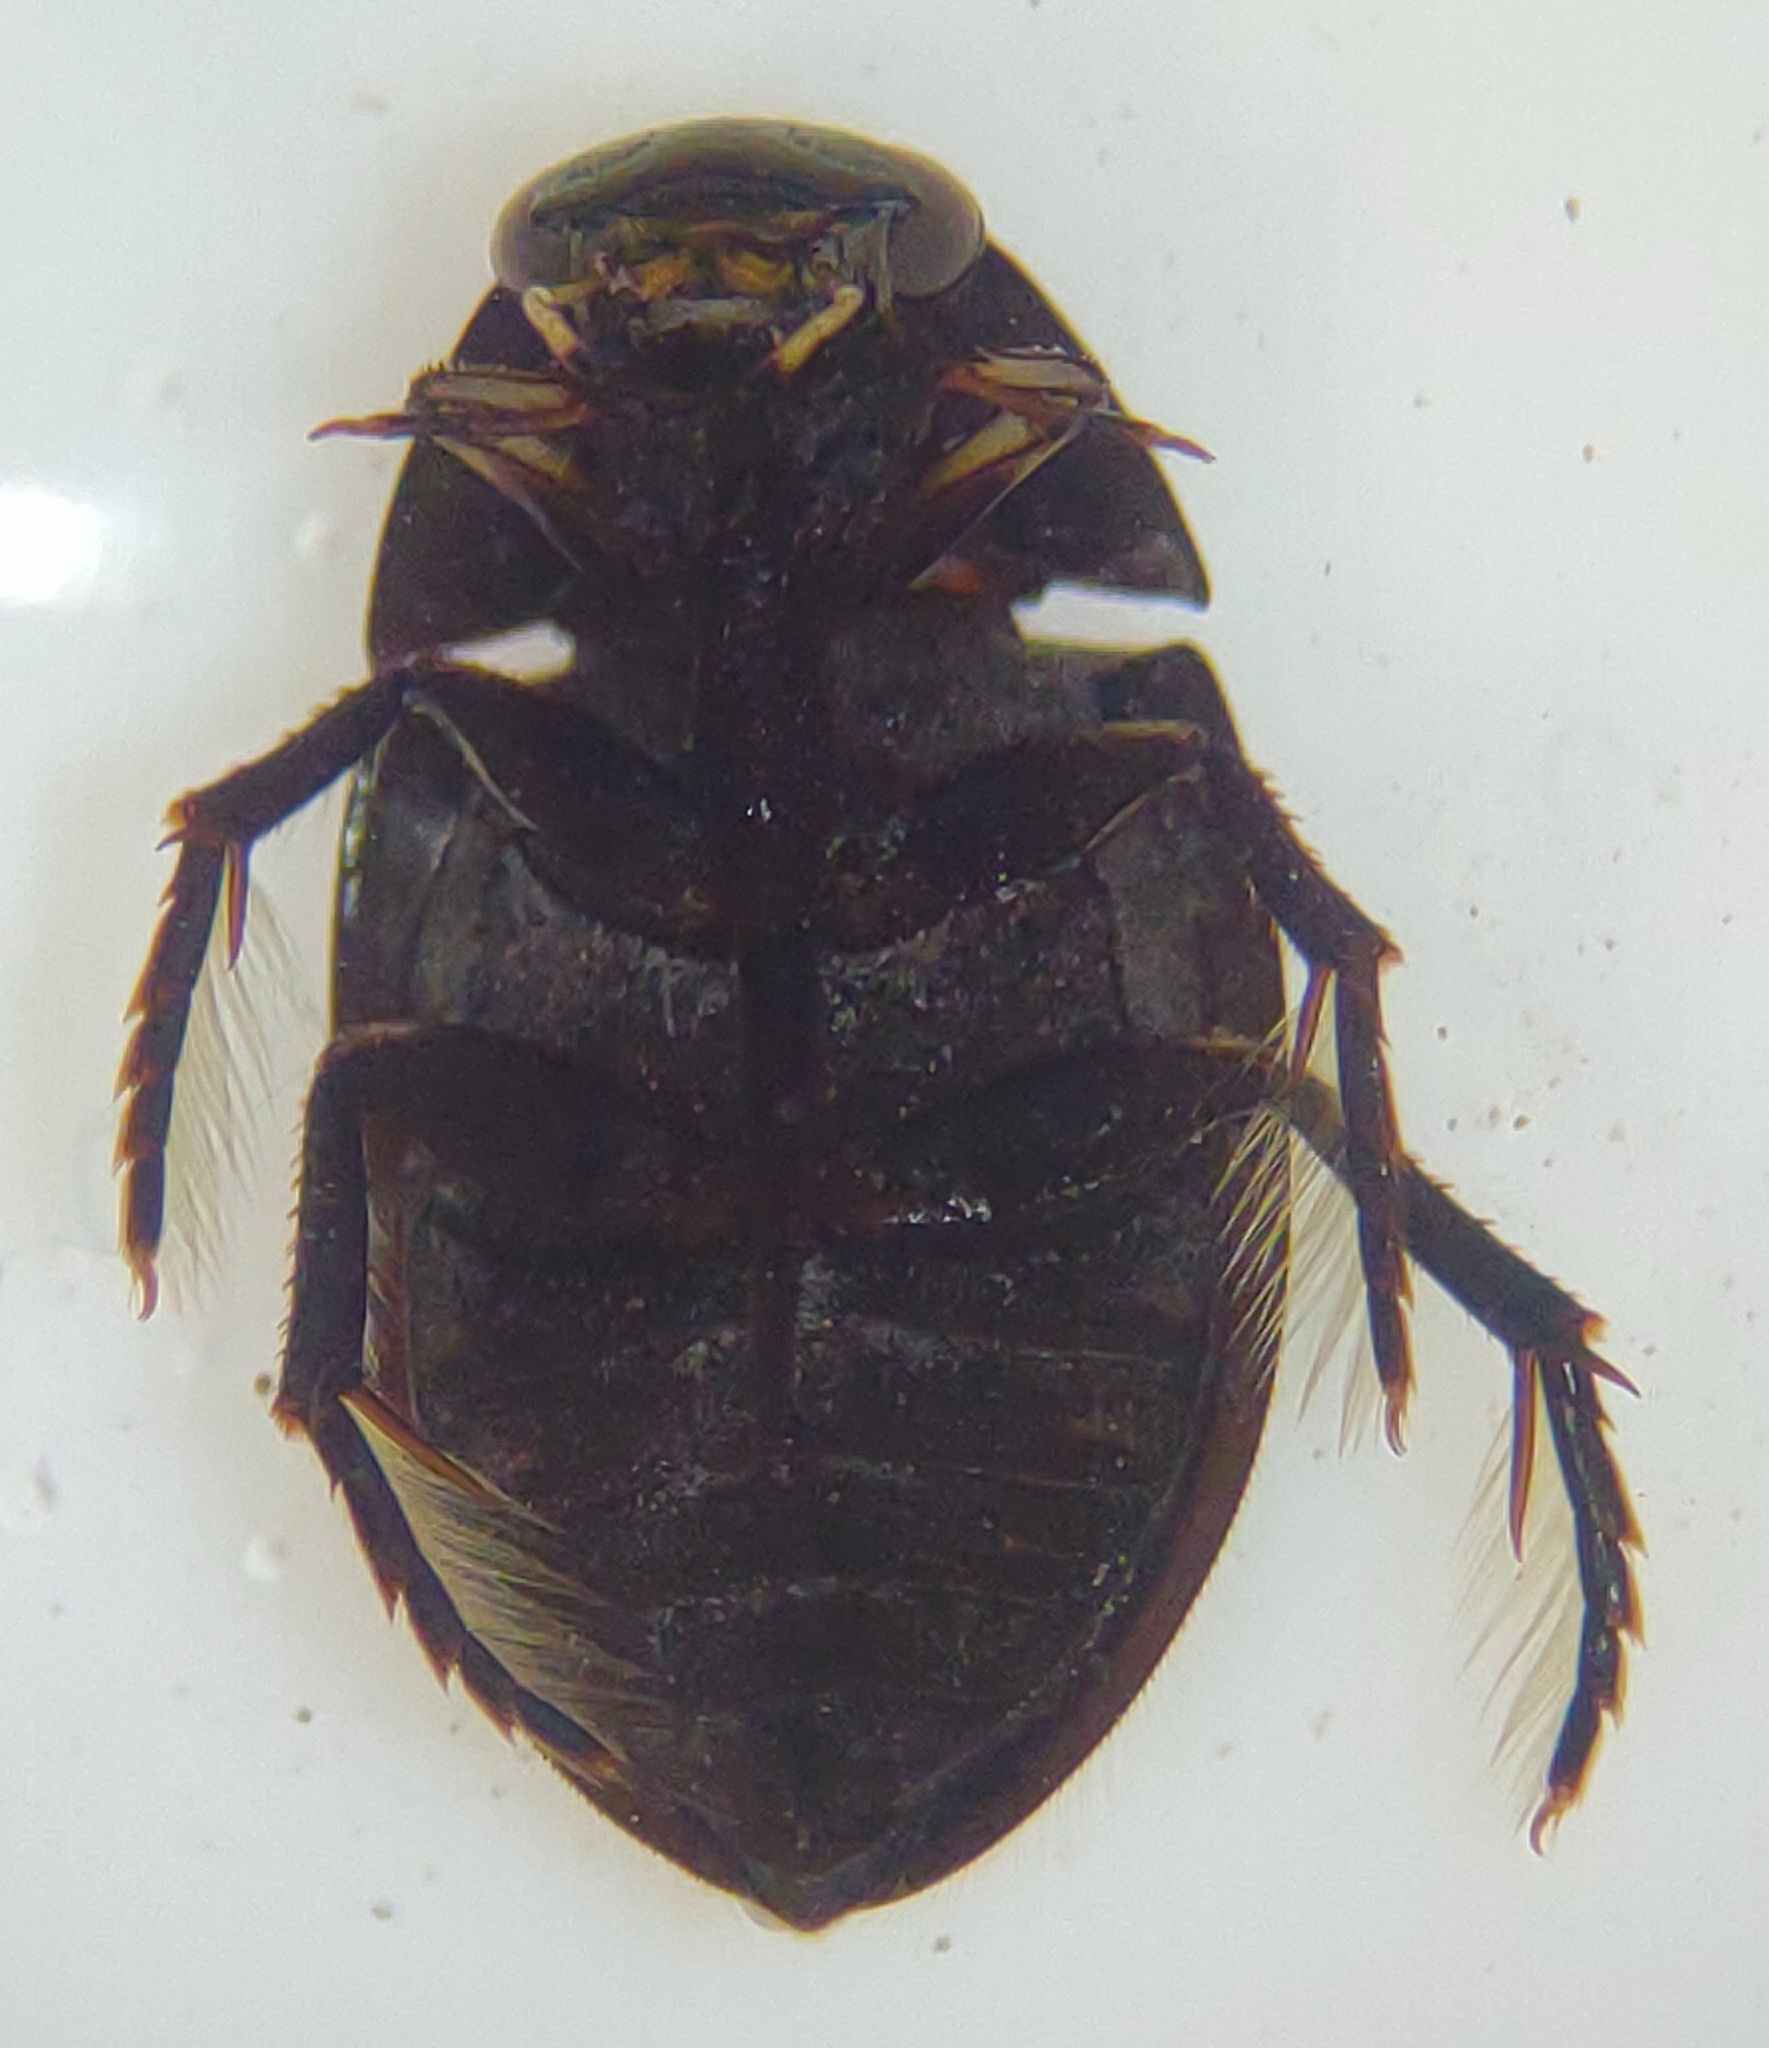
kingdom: Animalia
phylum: Arthropoda
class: Insecta
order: Coleoptera
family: Hydrophilidae
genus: Tropisternus
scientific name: Tropisternus
